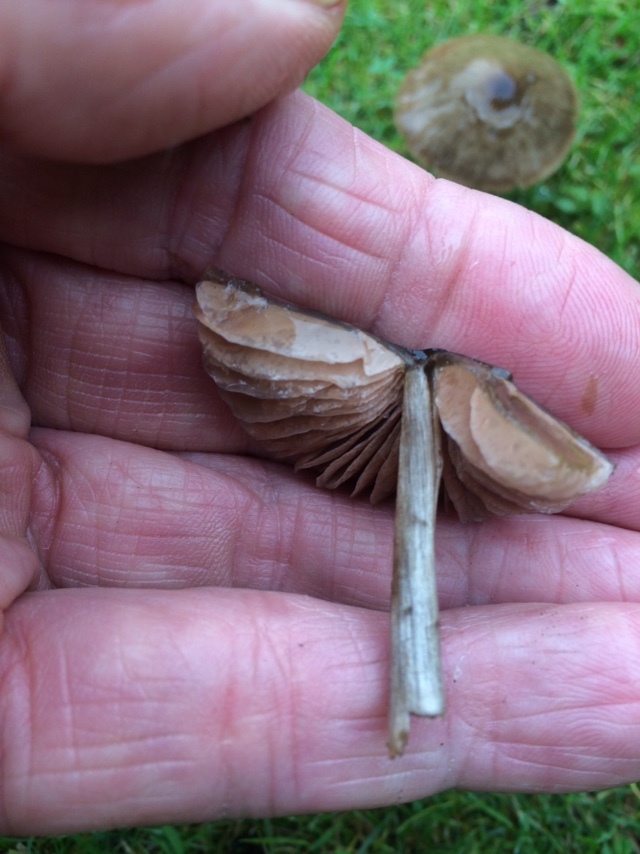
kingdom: Fungi
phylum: Basidiomycota
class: Agaricomycetes
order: Agaricales
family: Entolomataceae
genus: Entoloma
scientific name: Entoloma conferendum
